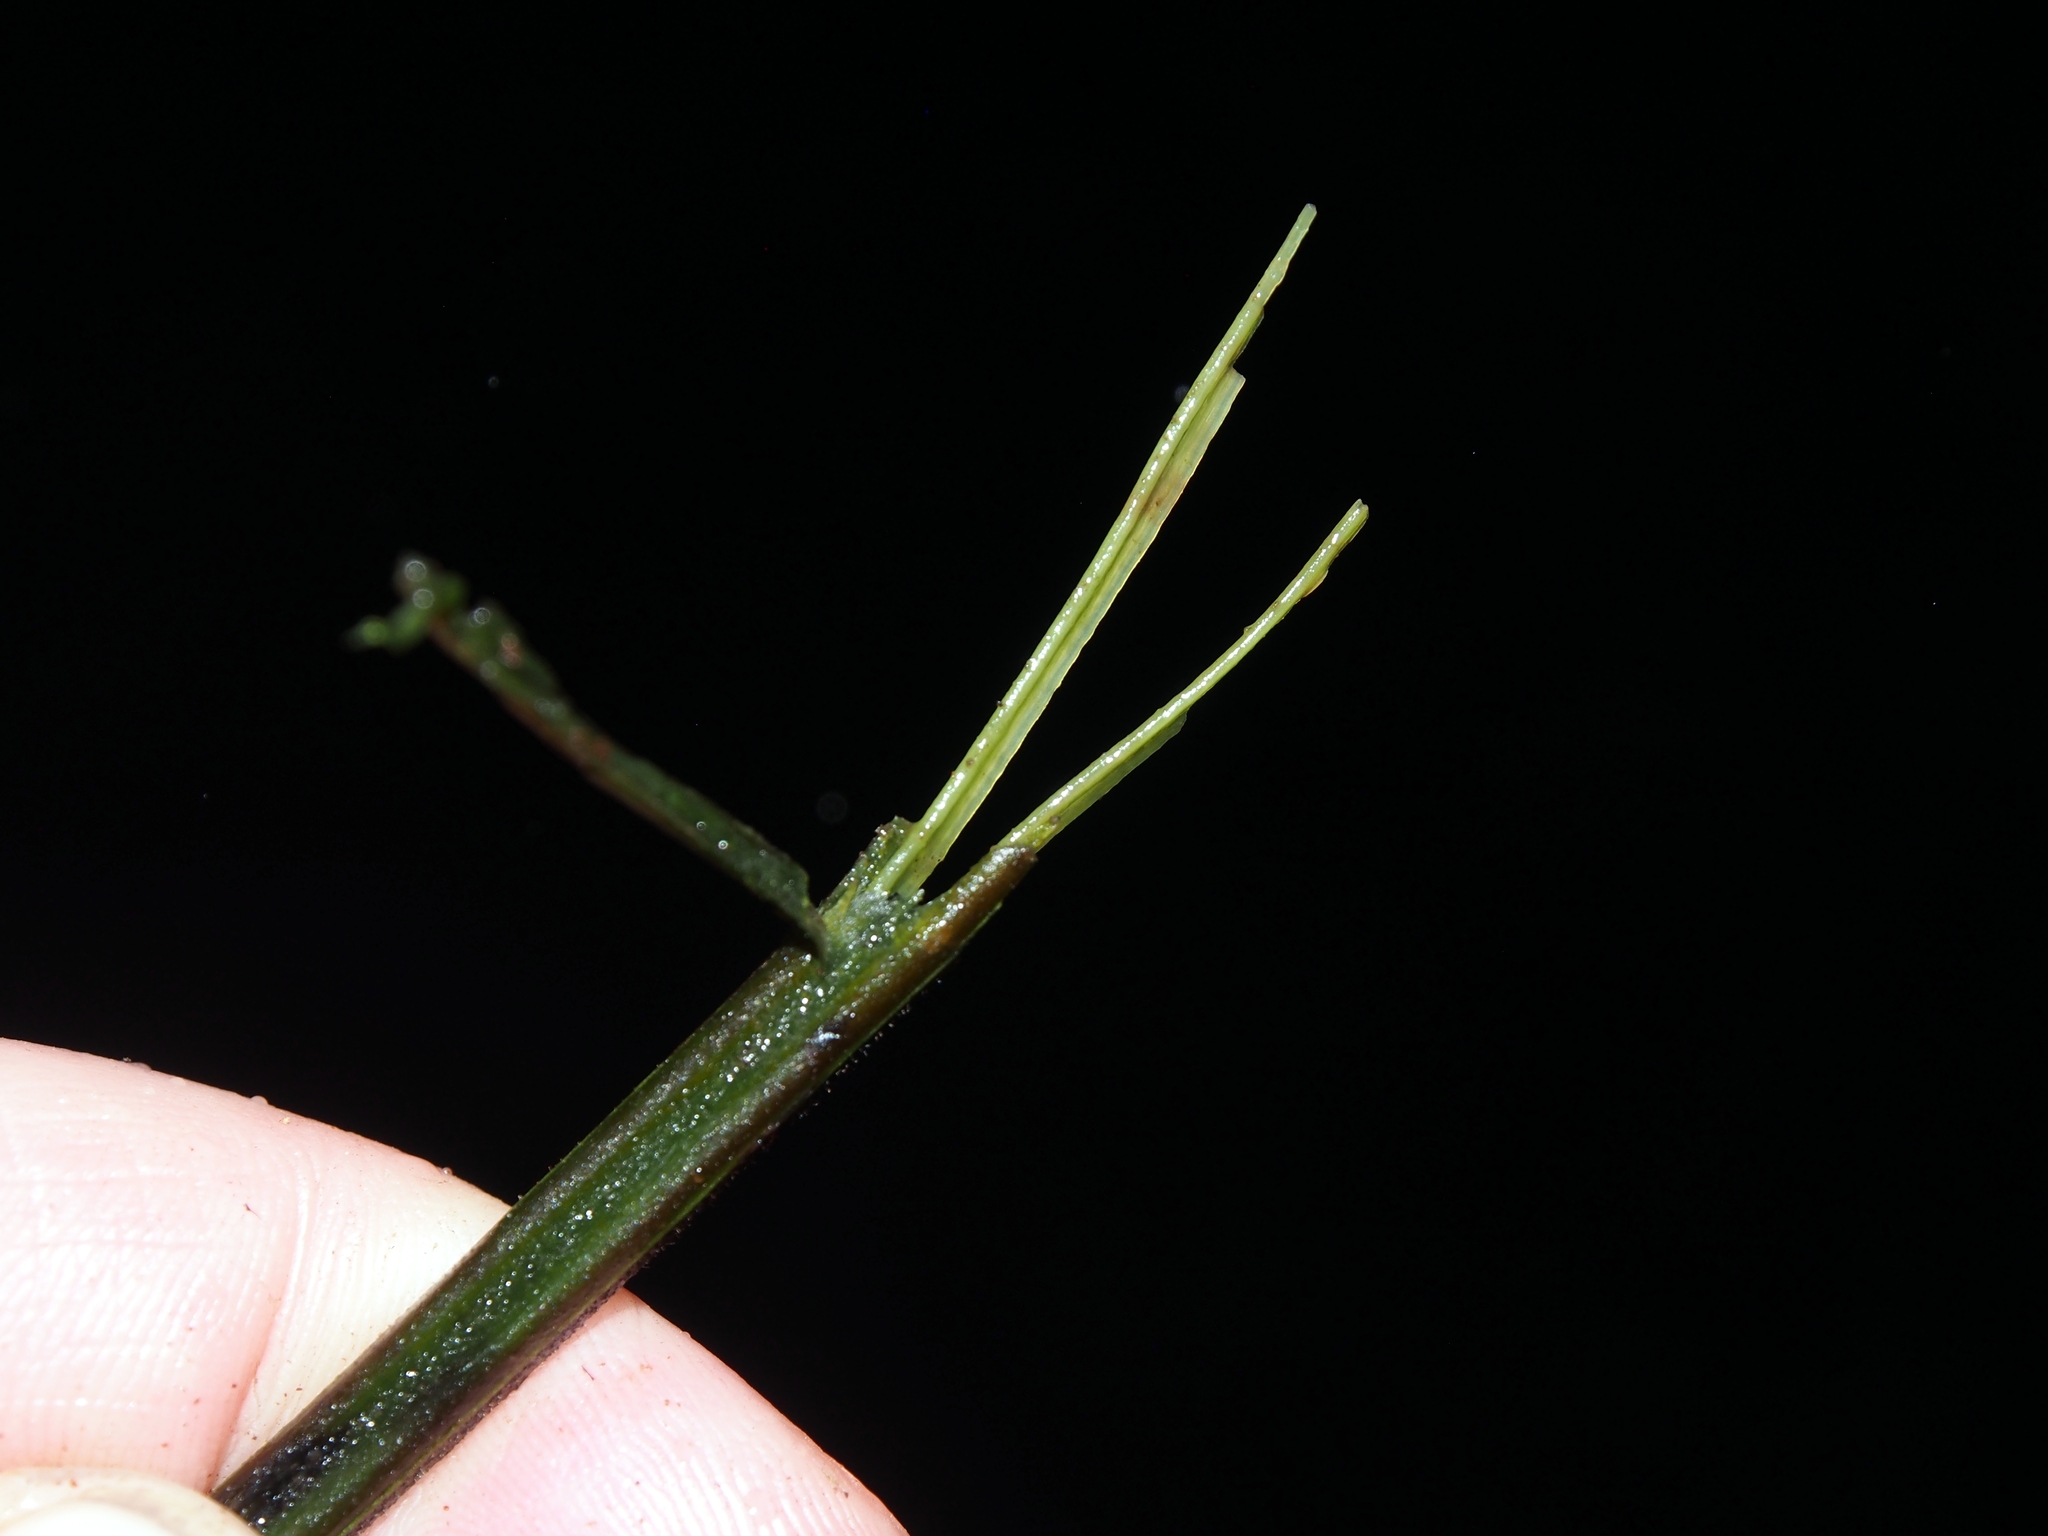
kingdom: Plantae
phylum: Tracheophyta
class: Polypodiopsida
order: Polypodiales
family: Athyriaceae
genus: Diplazium
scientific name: Diplazium striatastrum
